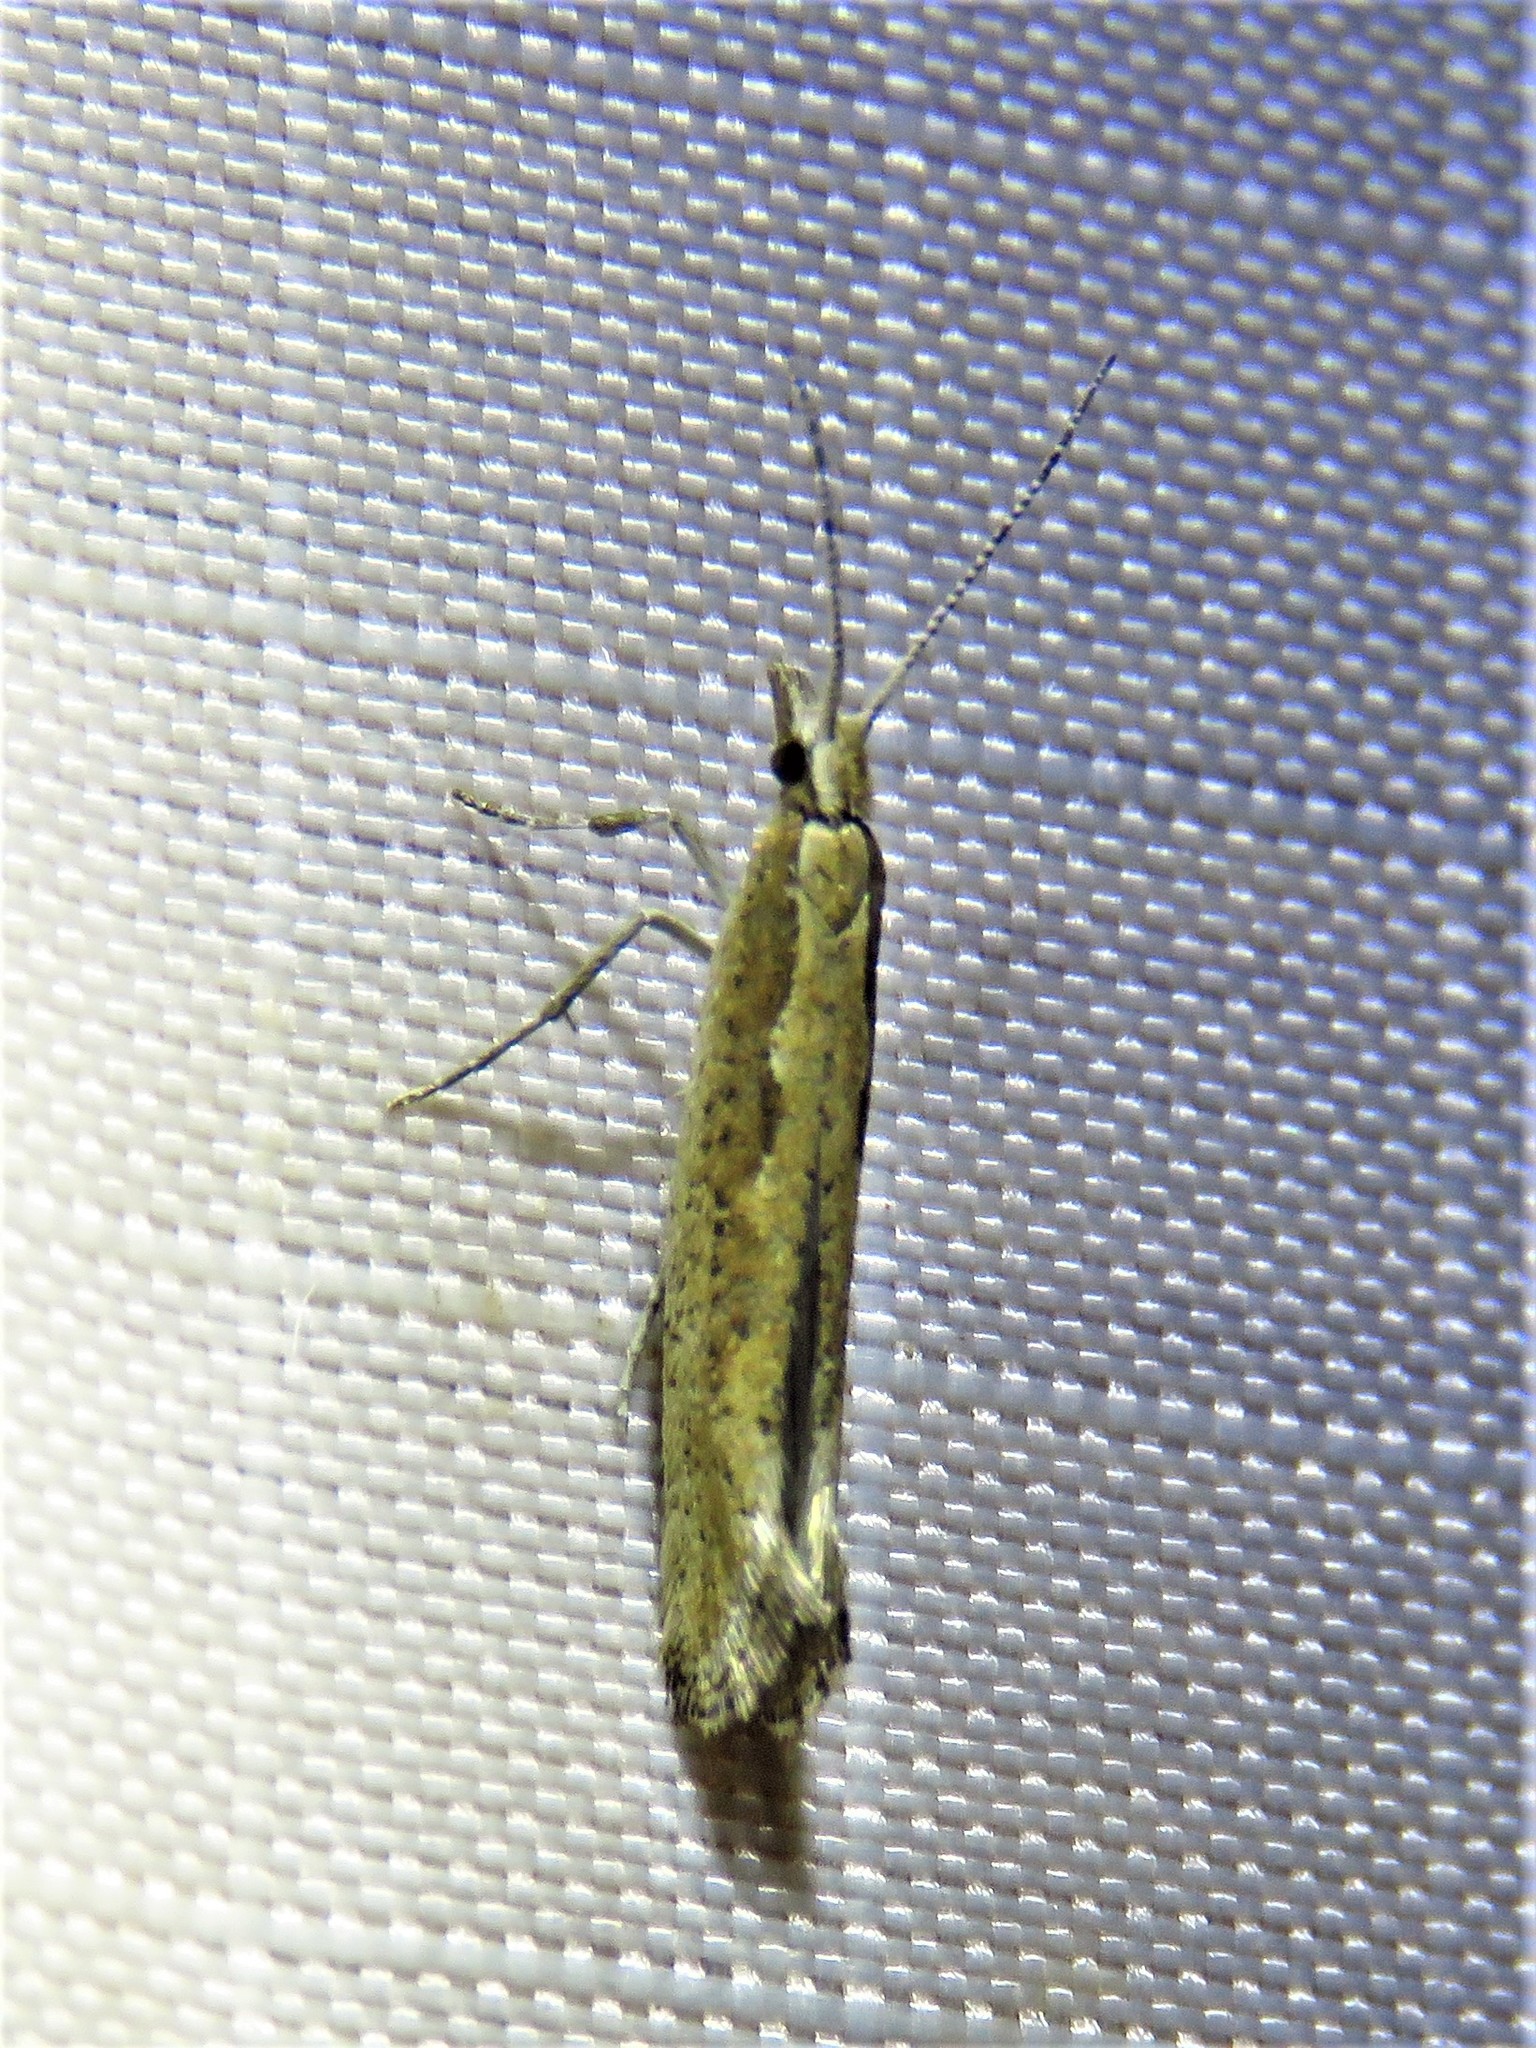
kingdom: Animalia
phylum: Arthropoda
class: Insecta
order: Lepidoptera
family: Plutellidae
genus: Plutella
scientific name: Plutella xylostella
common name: Diamond-back moth
